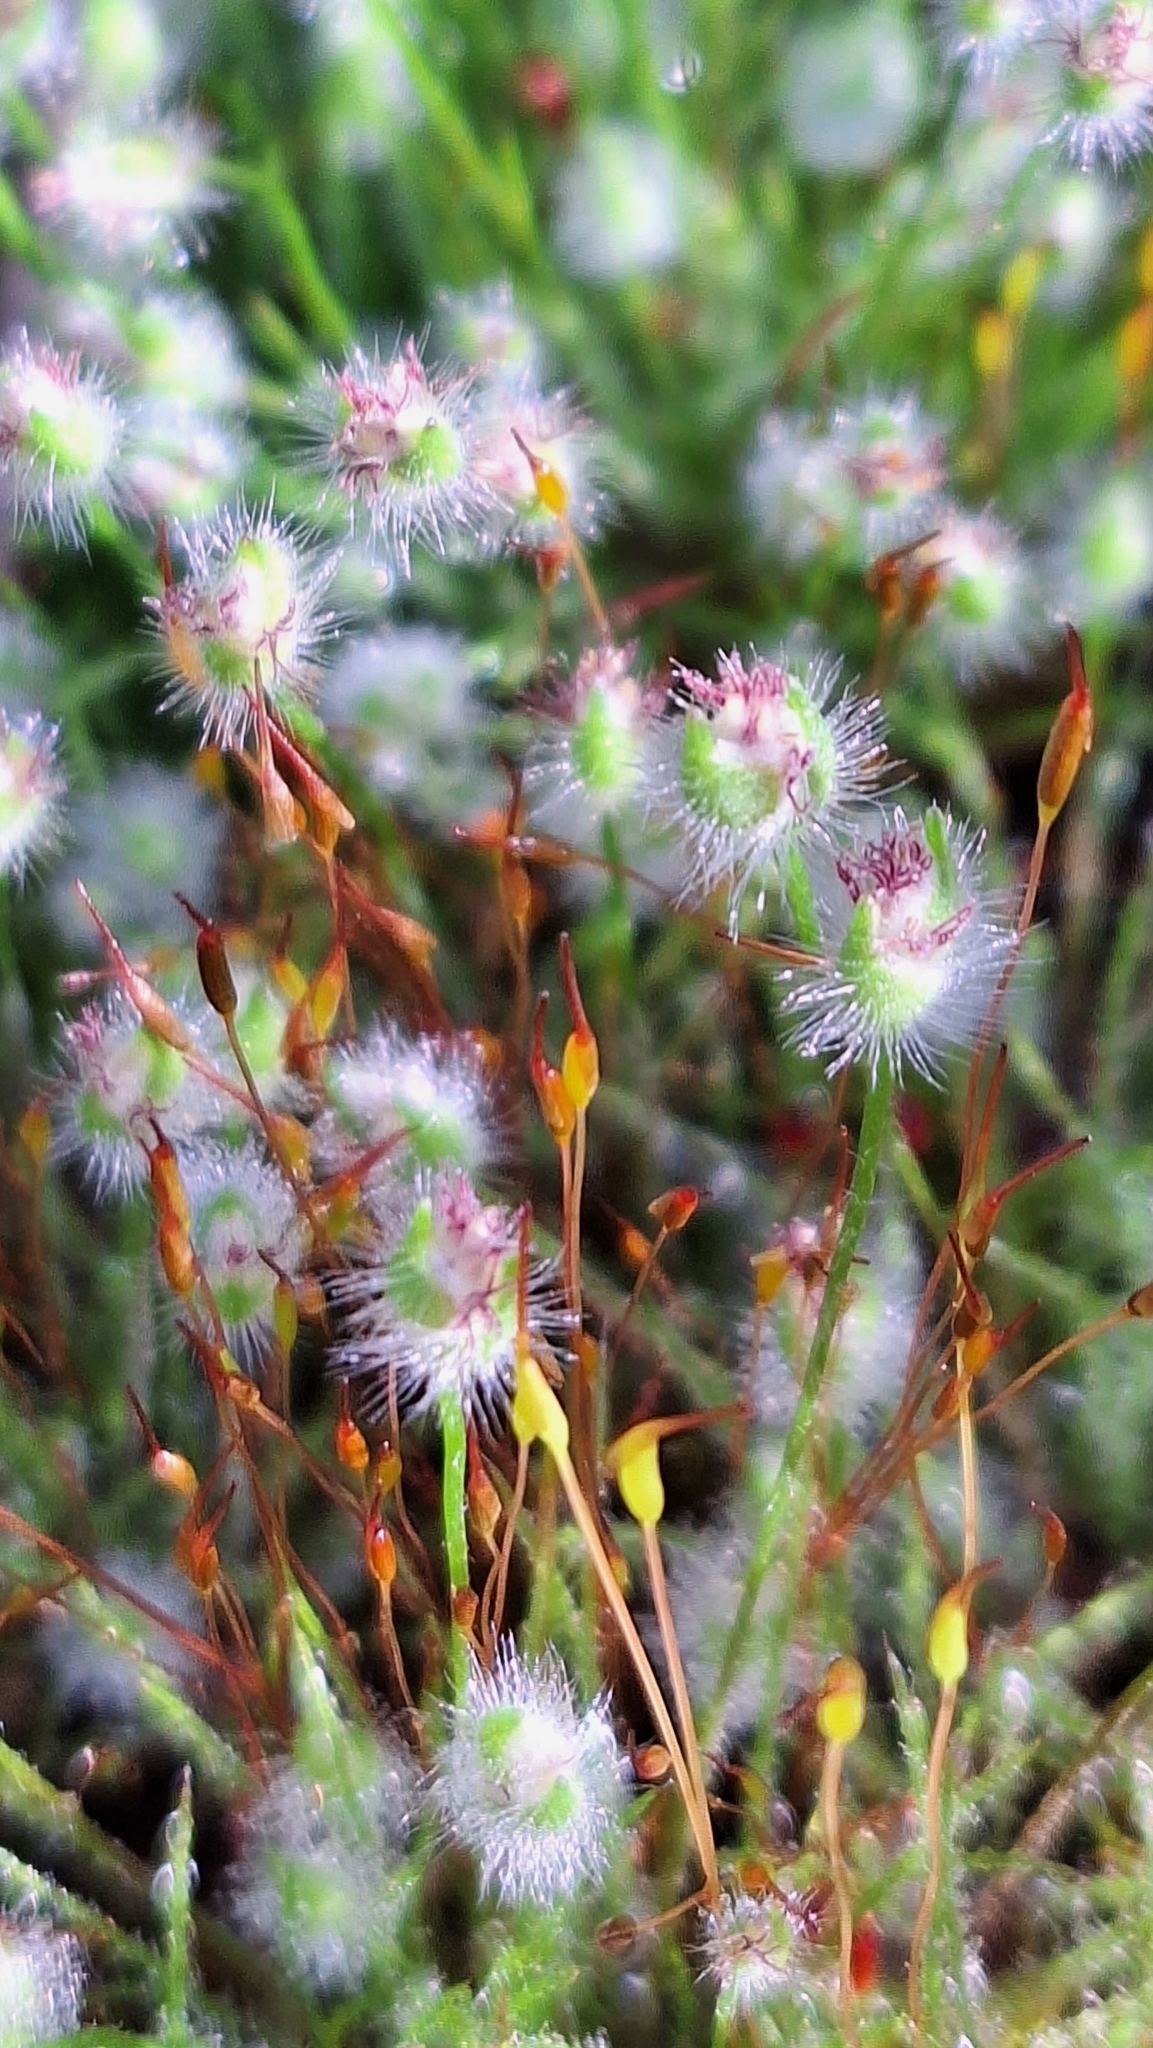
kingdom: Plantae
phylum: Tracheophyta
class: Liliopsida
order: Poales
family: Restionaceae
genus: Centrolepis
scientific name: Centrolepis strigosa
